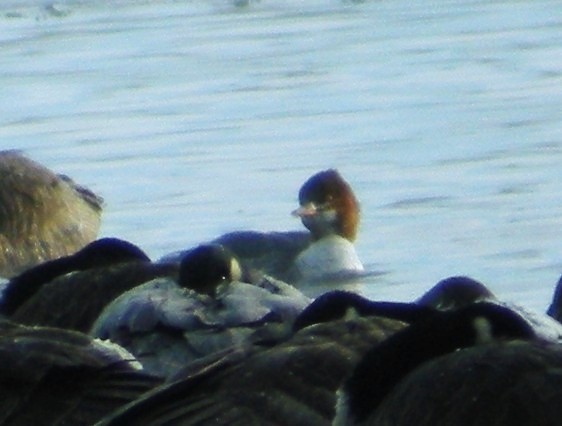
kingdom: Animalia
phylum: Chordata
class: Aves
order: Anseriformes
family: Anatidae
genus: Mergus
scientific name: Mergus merganser
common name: Common merganser
